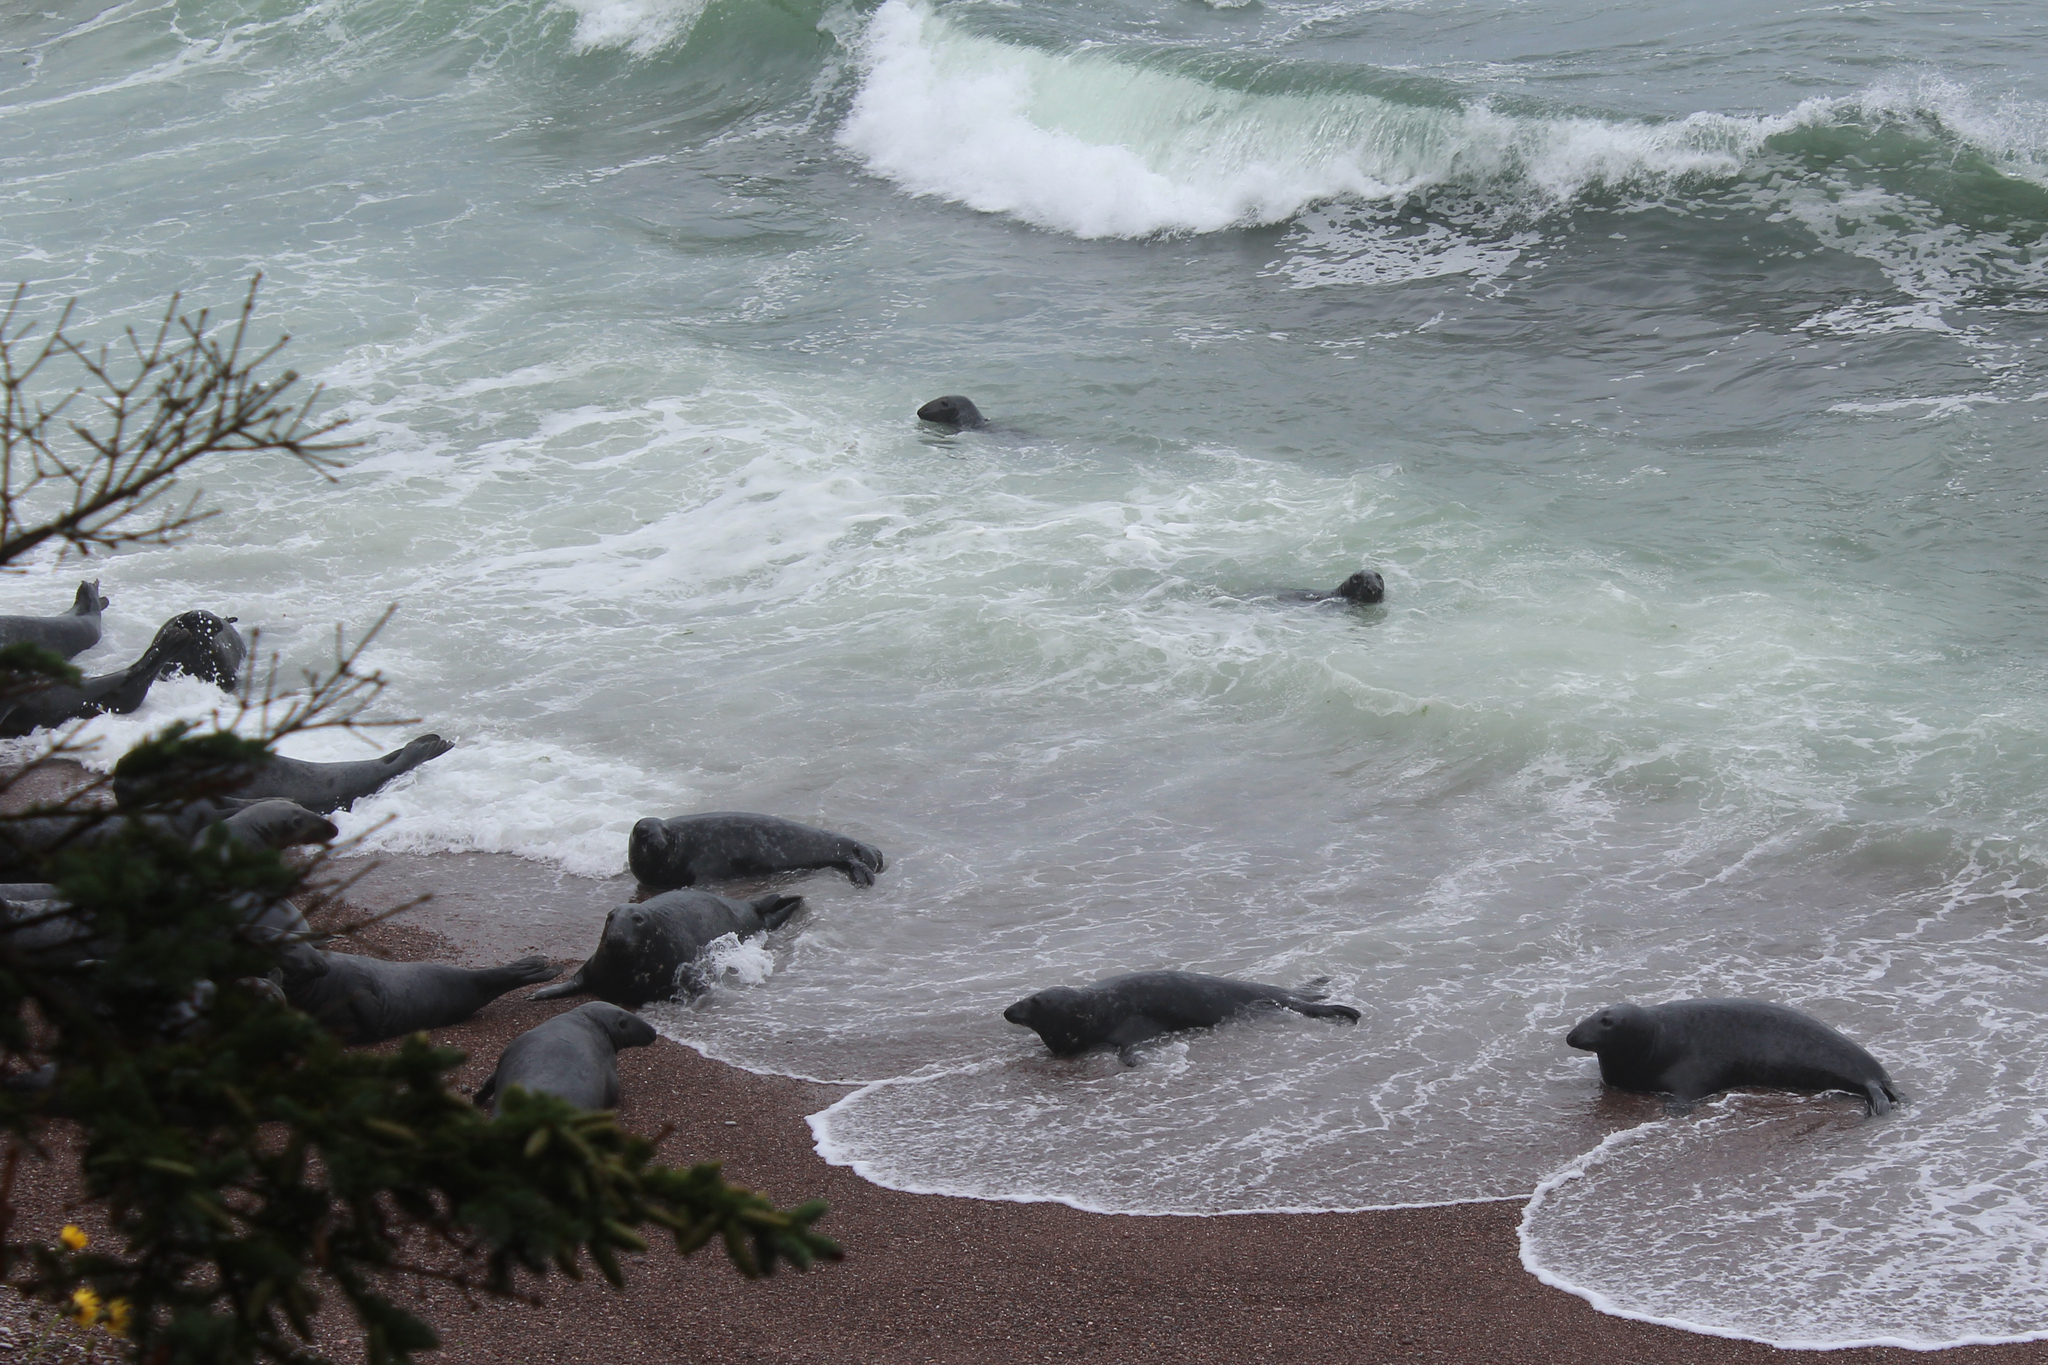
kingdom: Animalia
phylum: Chordata
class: Mammalia
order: Carnivora
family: Phocidae
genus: Halichoerus
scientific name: Halichoerus grypus
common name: Grey seal
